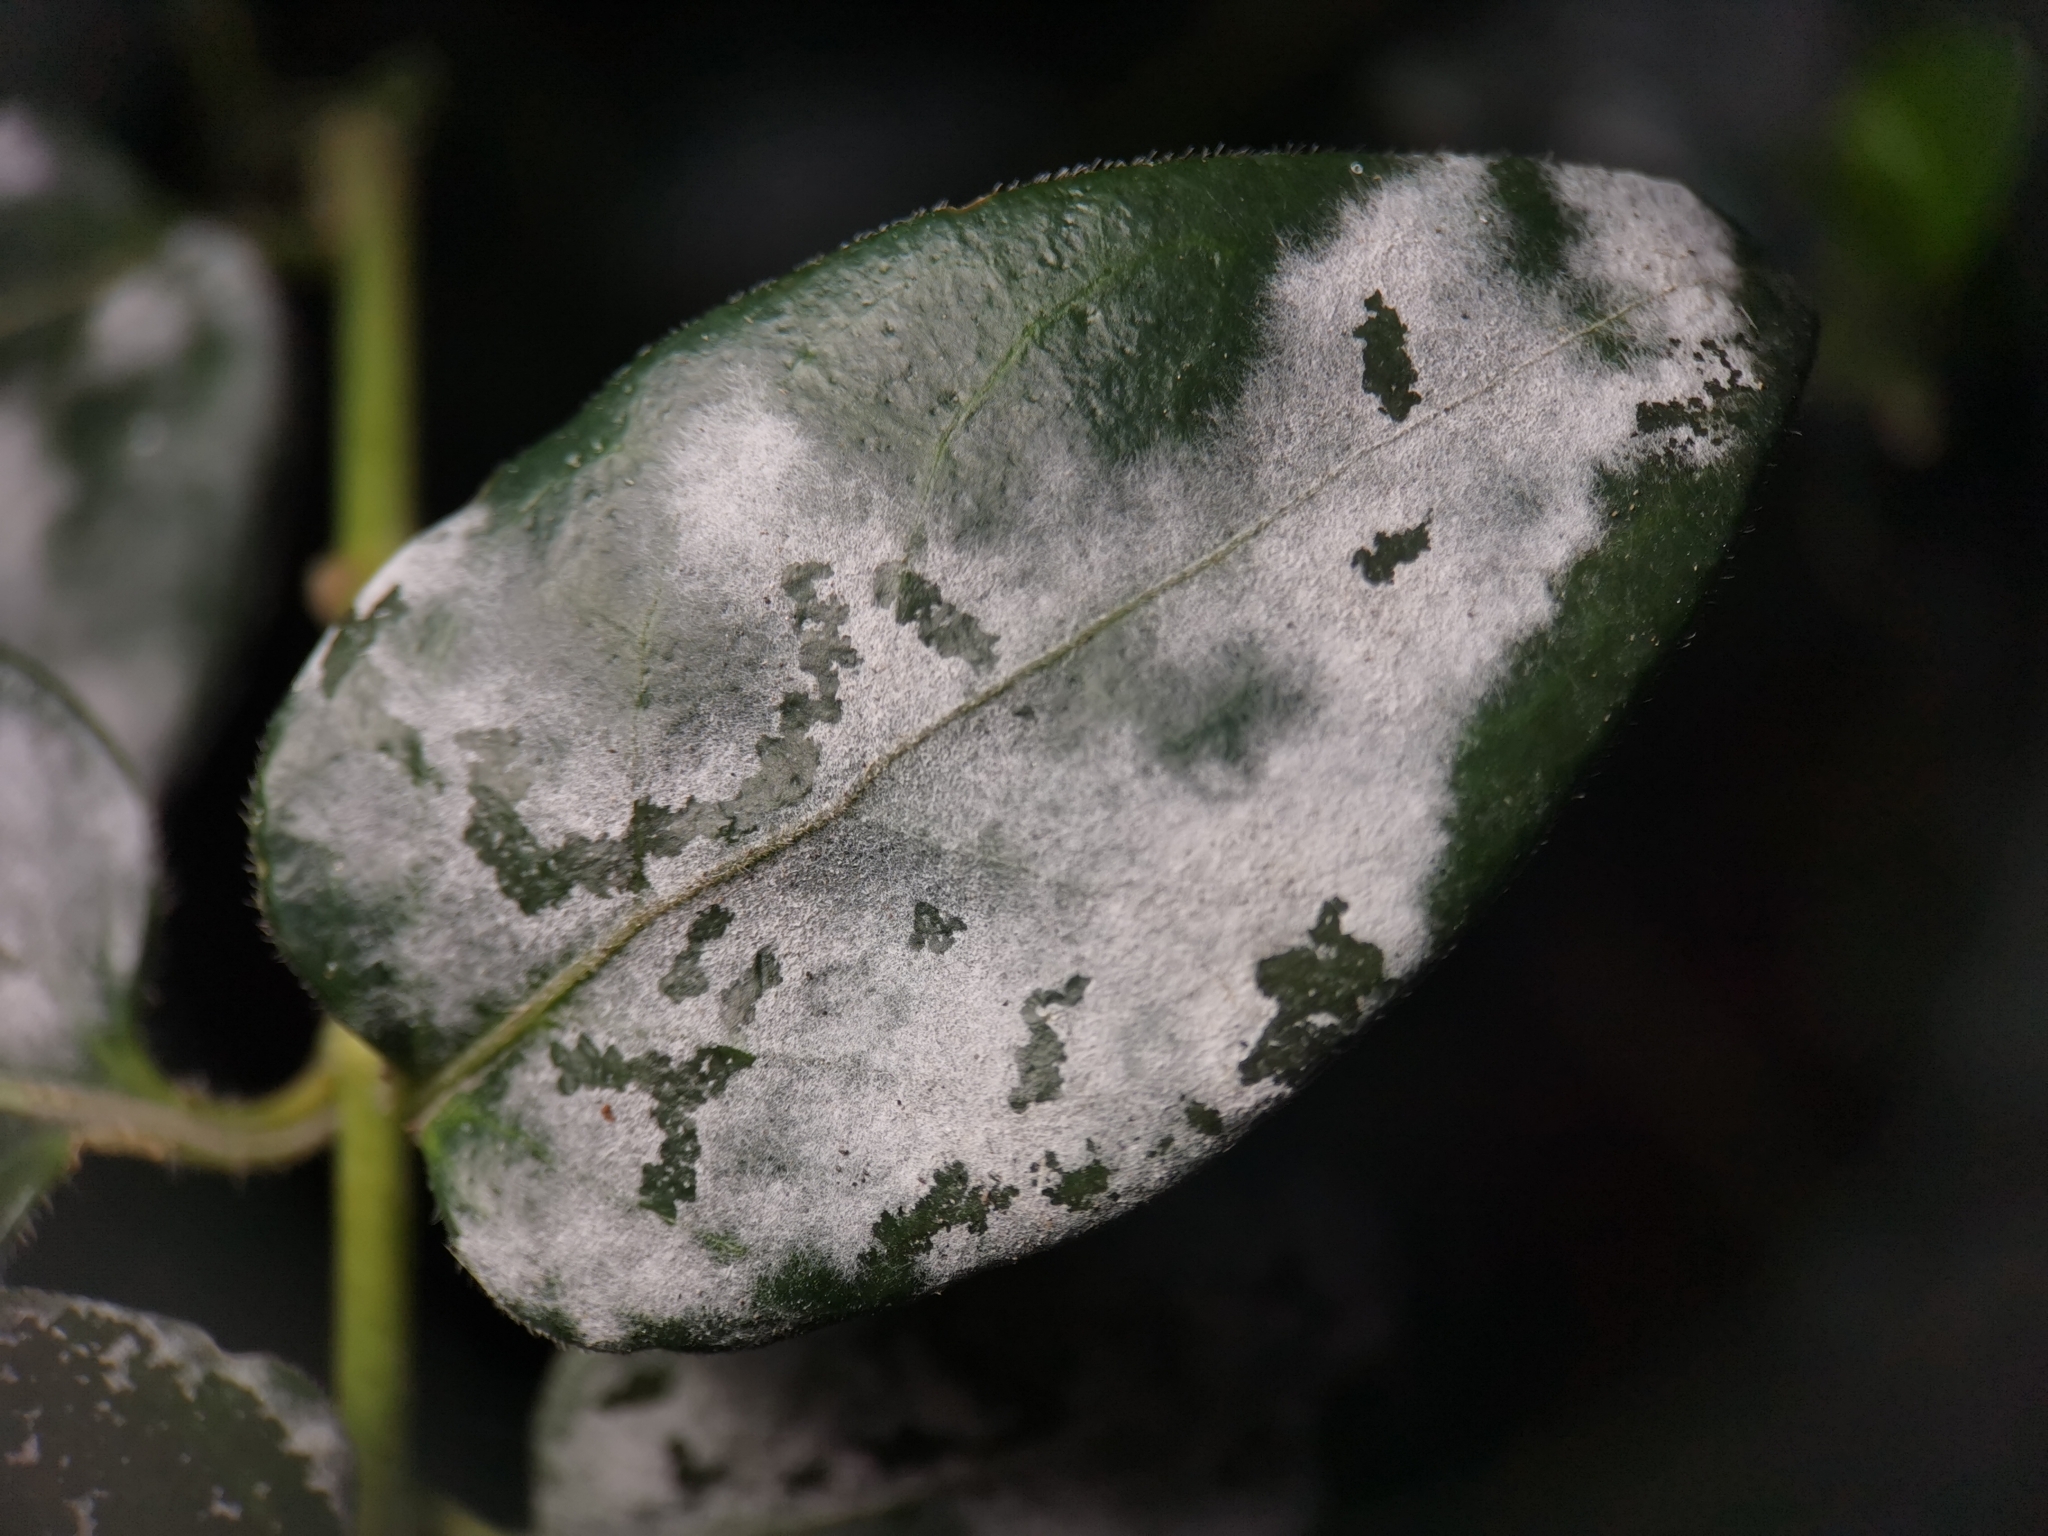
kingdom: Fungi
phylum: Ascomycota
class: Leotiomycetes
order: Helotiales
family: Erysiphaceae
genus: Golovinomyces
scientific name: Golovinomyces vincae
